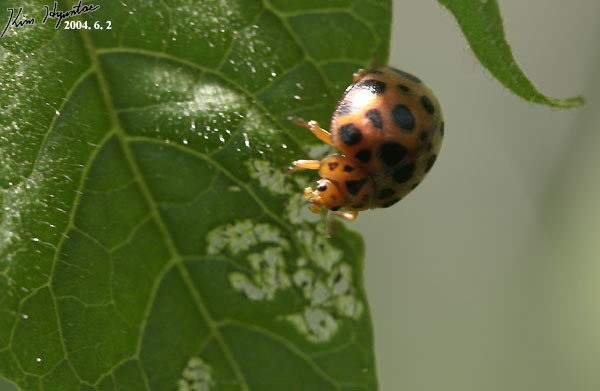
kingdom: Animalia
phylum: Arthropoda
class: Insecta
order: Coleoptera
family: Coccinellidae
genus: Henosepilachna
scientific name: Henosepilachna vigintioctopunctata
